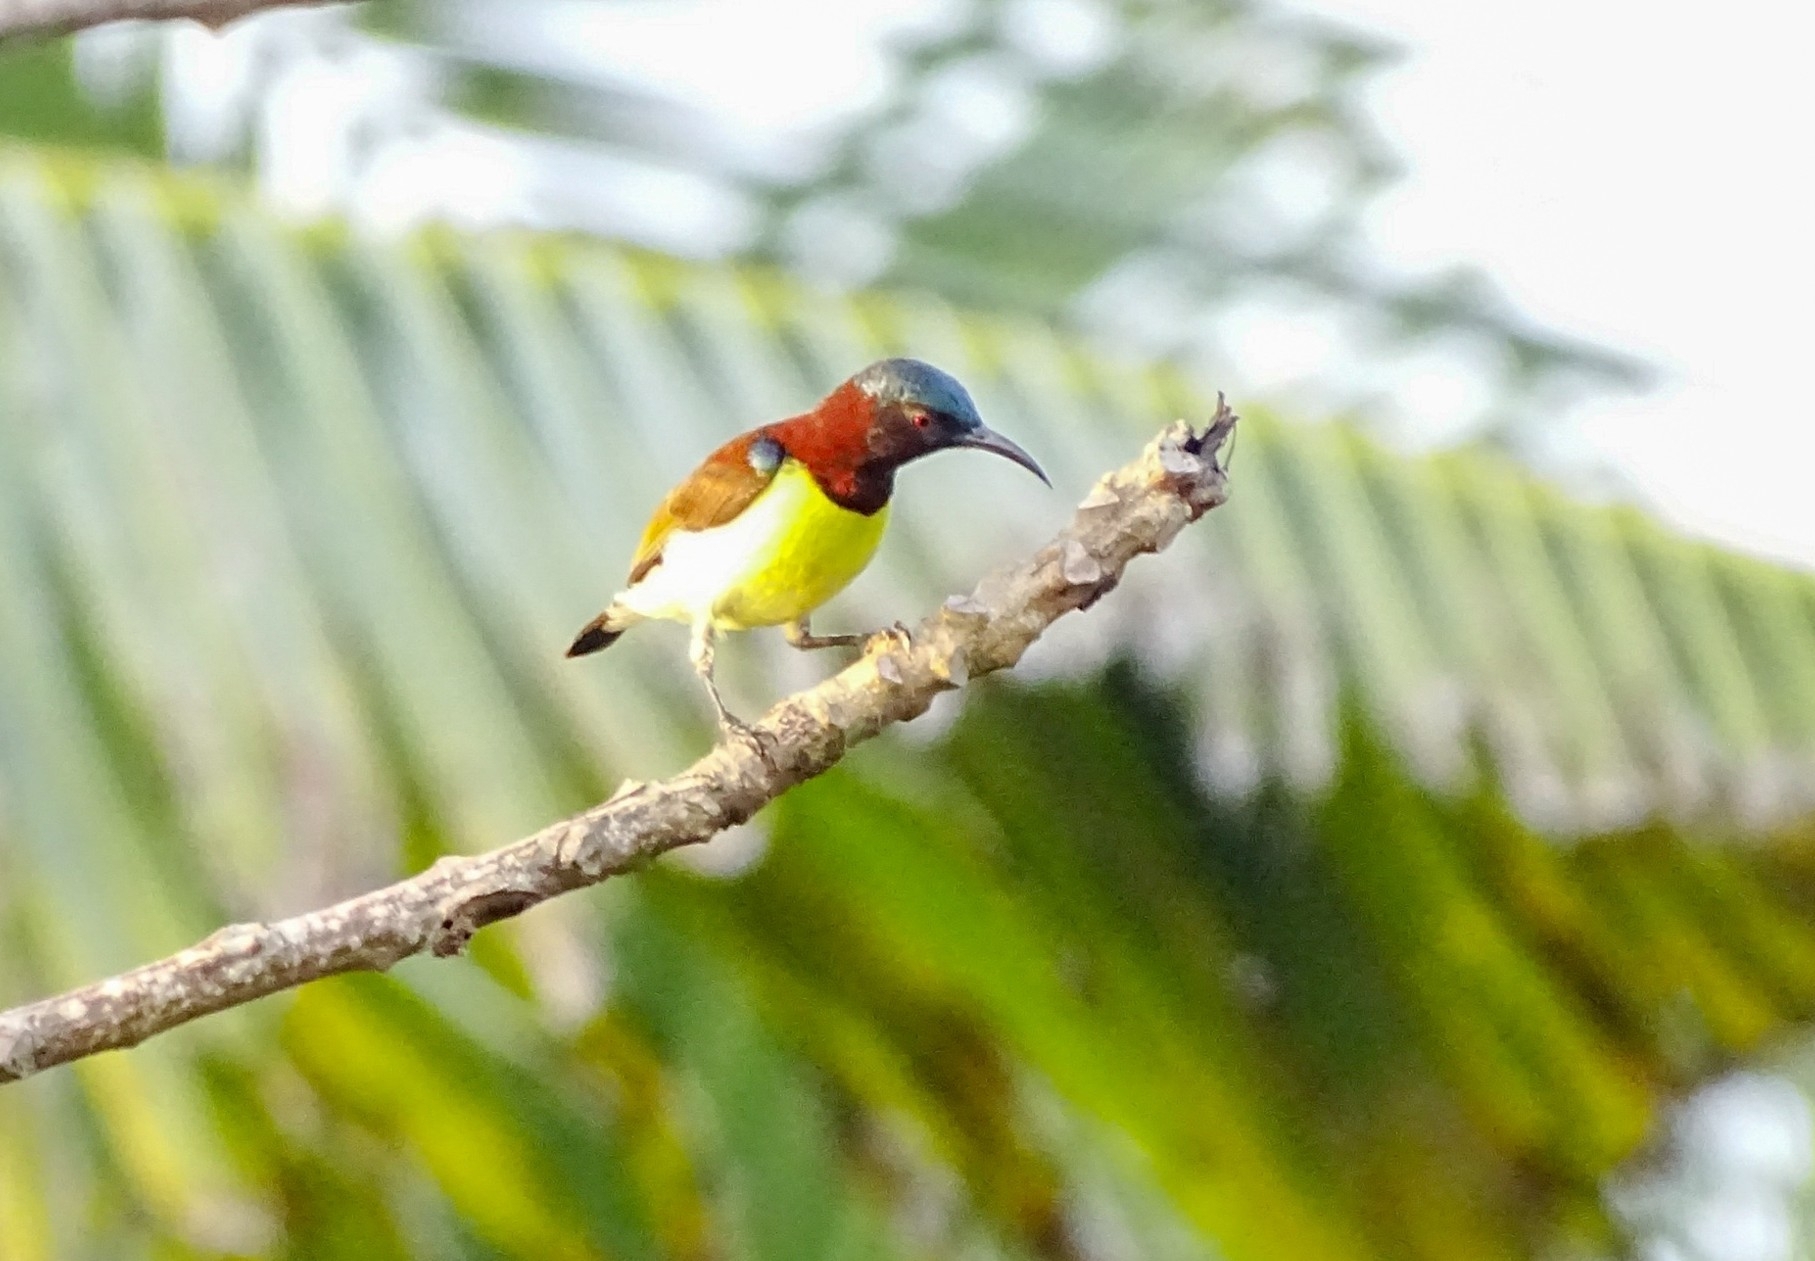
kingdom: Animalia
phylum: Chordata
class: Aves
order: Passeriformes
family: Nectariniidae
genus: Leptocoma
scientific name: Leptocoma zeylonica
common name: Purple-rumped sunbird
